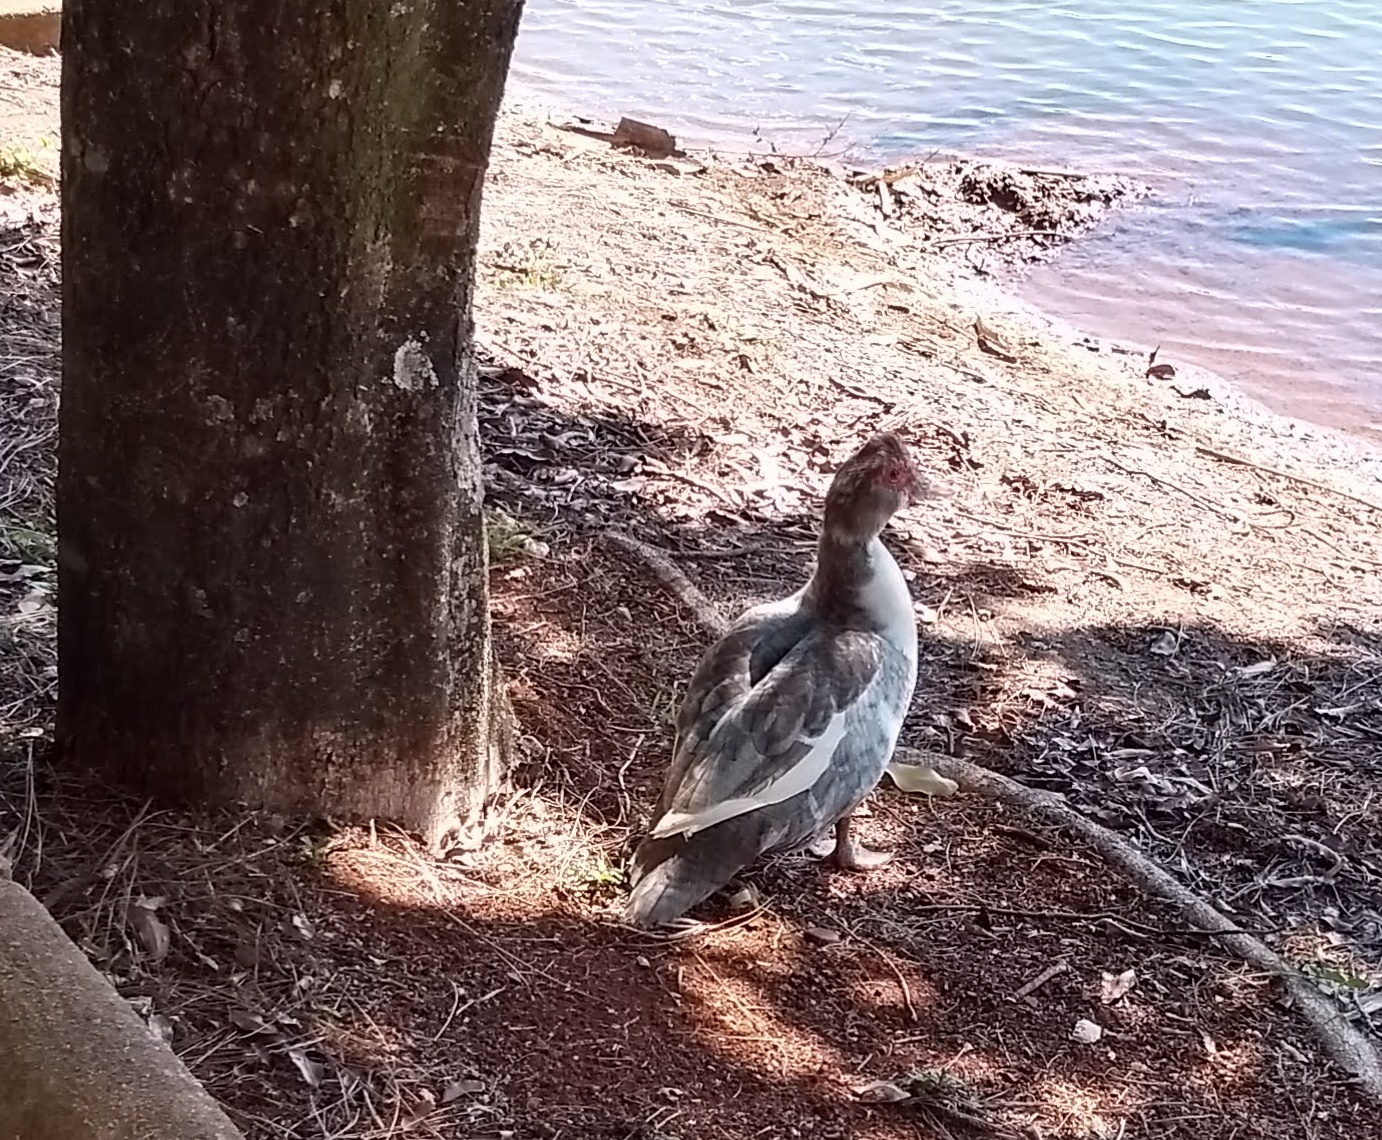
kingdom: Animalia
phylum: Chordata
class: Aves
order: Anseriformes
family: Anatidae
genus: Cairina
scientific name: Cairina moschata
